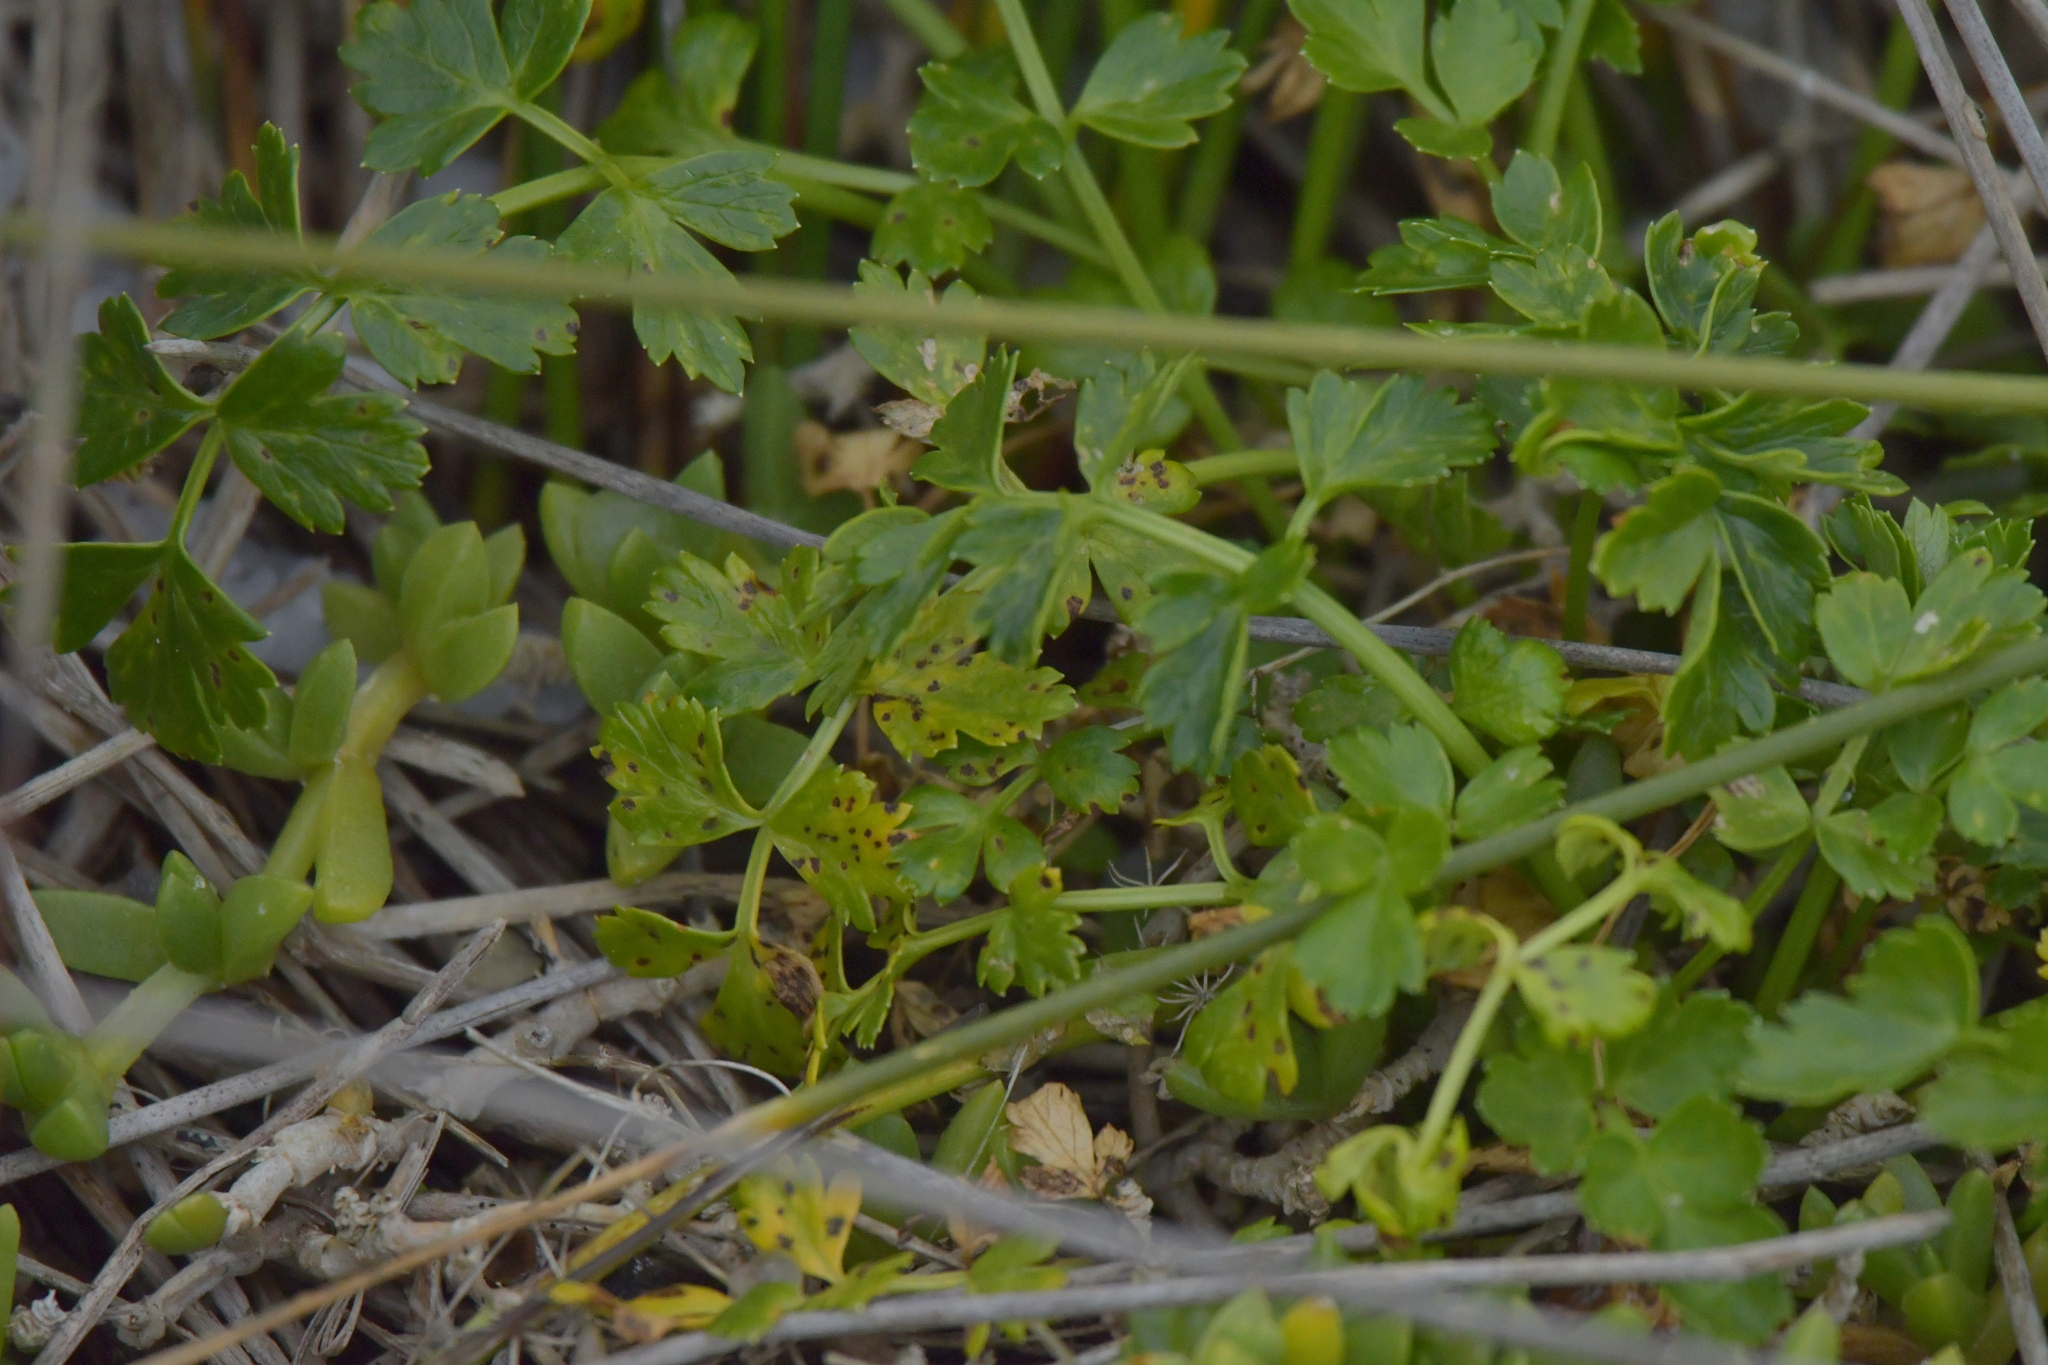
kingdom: Plantae
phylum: Tracheophyta
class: Magnoliopsida
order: Apiales
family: Apiaceae
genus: Apium
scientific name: Apium prostratum
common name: Prostrate marshwort
